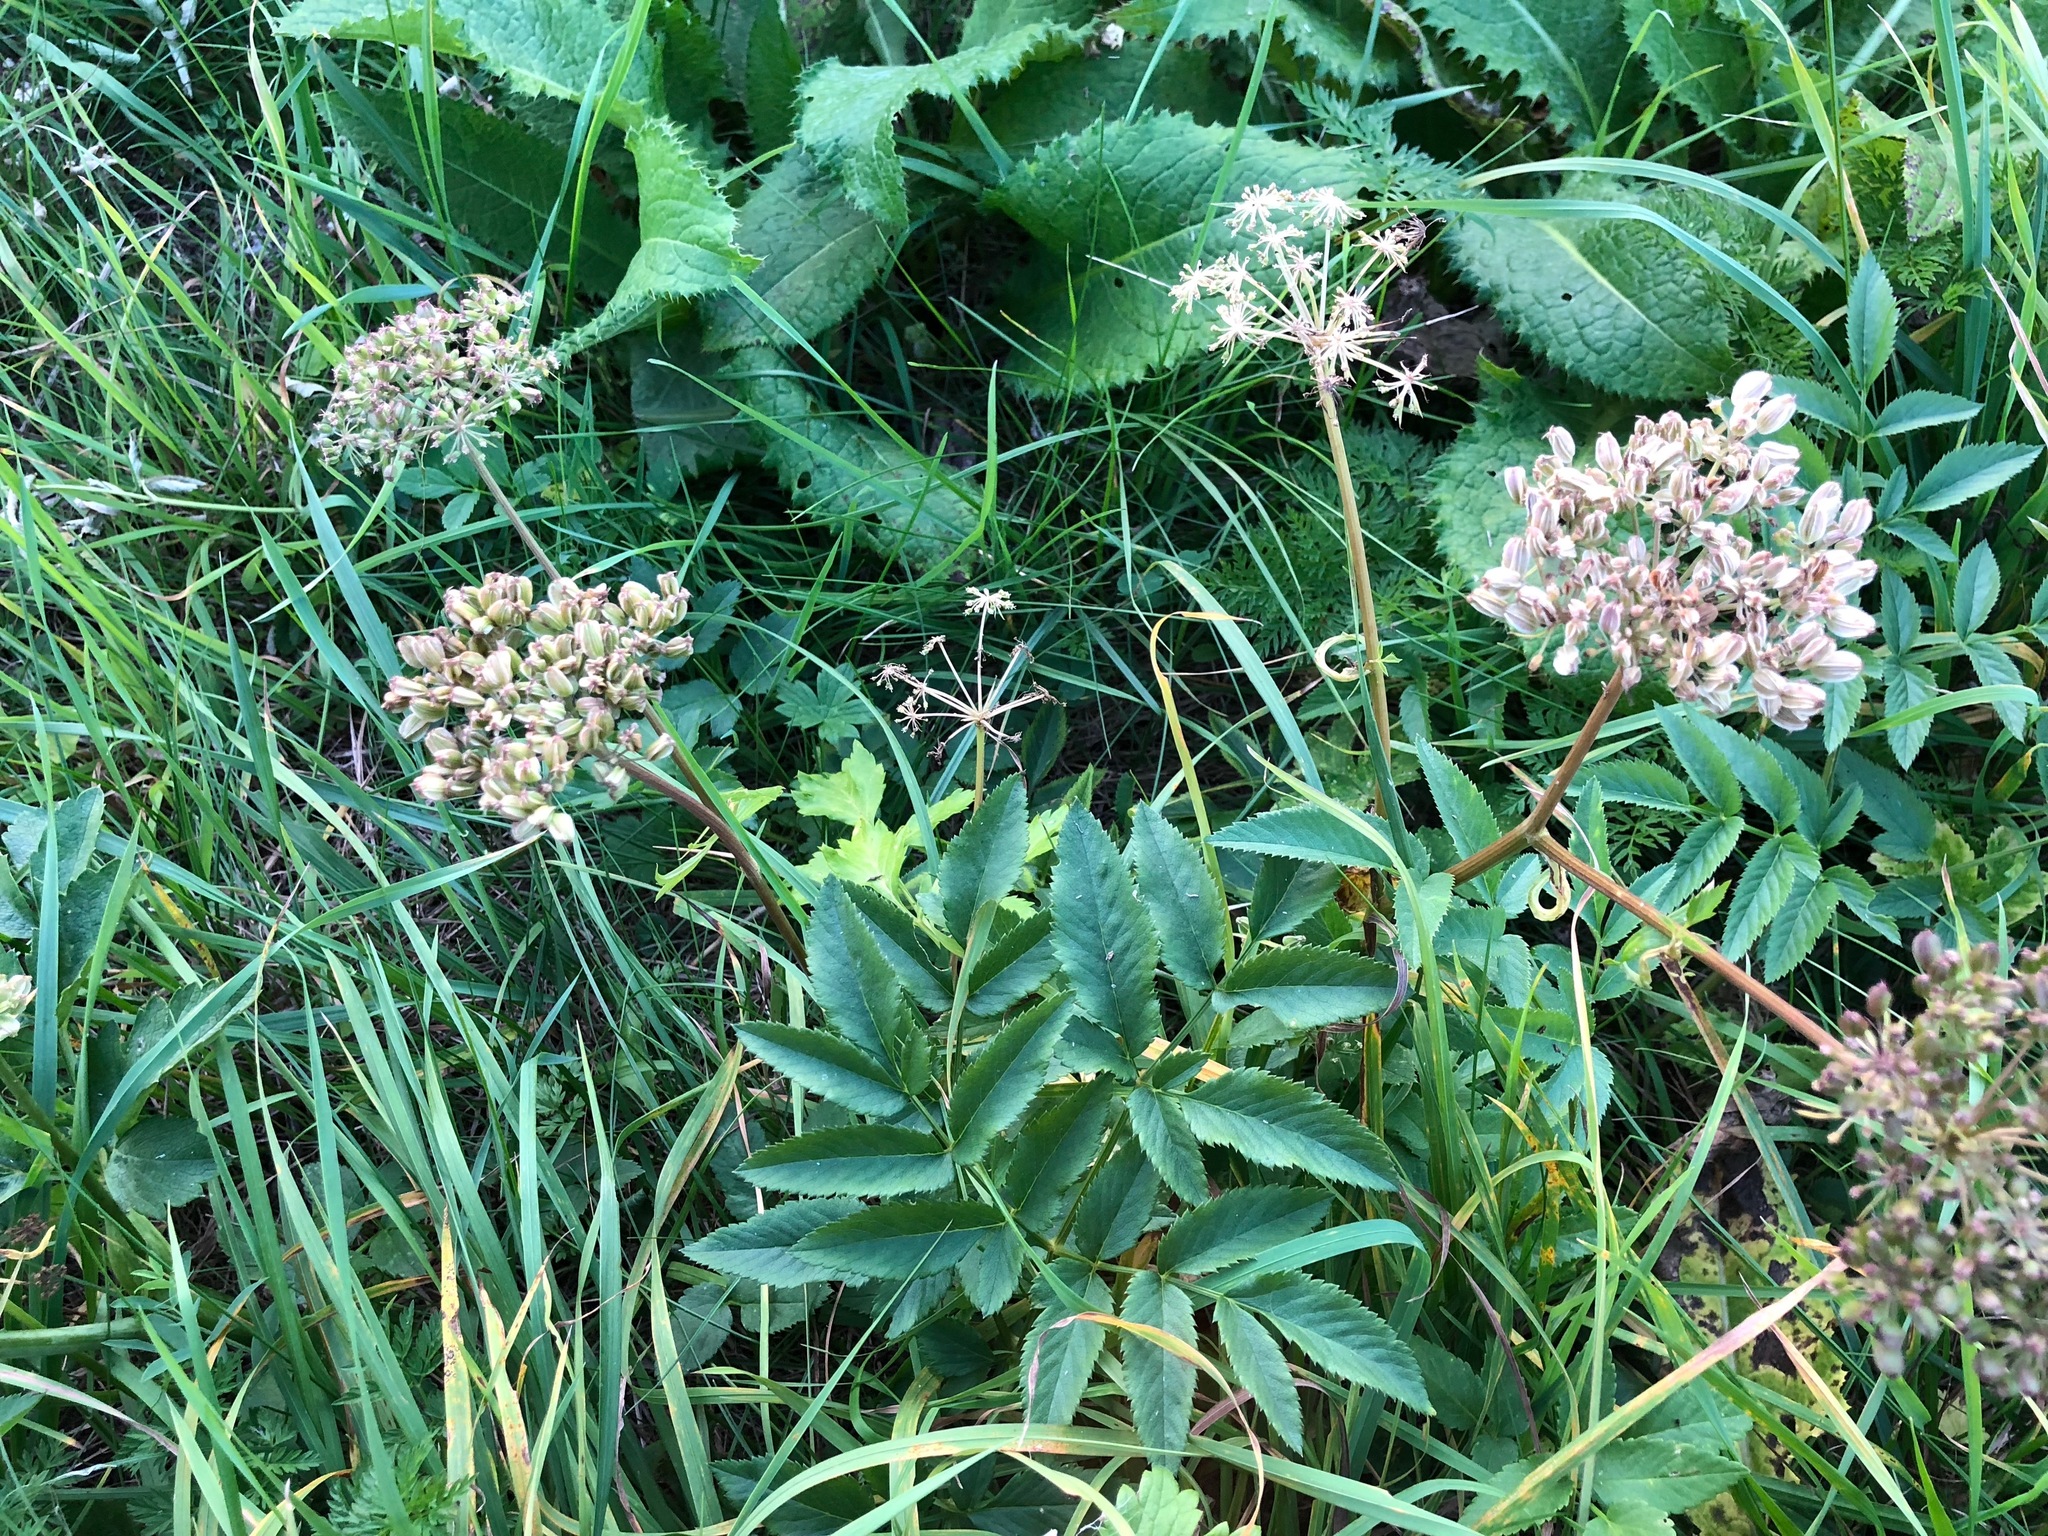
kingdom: Plantae
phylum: Tracheophyta
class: Magnoliopsida
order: Apiales
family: Apiaceae
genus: Angelica
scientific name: Angelica sylvestris
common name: Wild angelica
